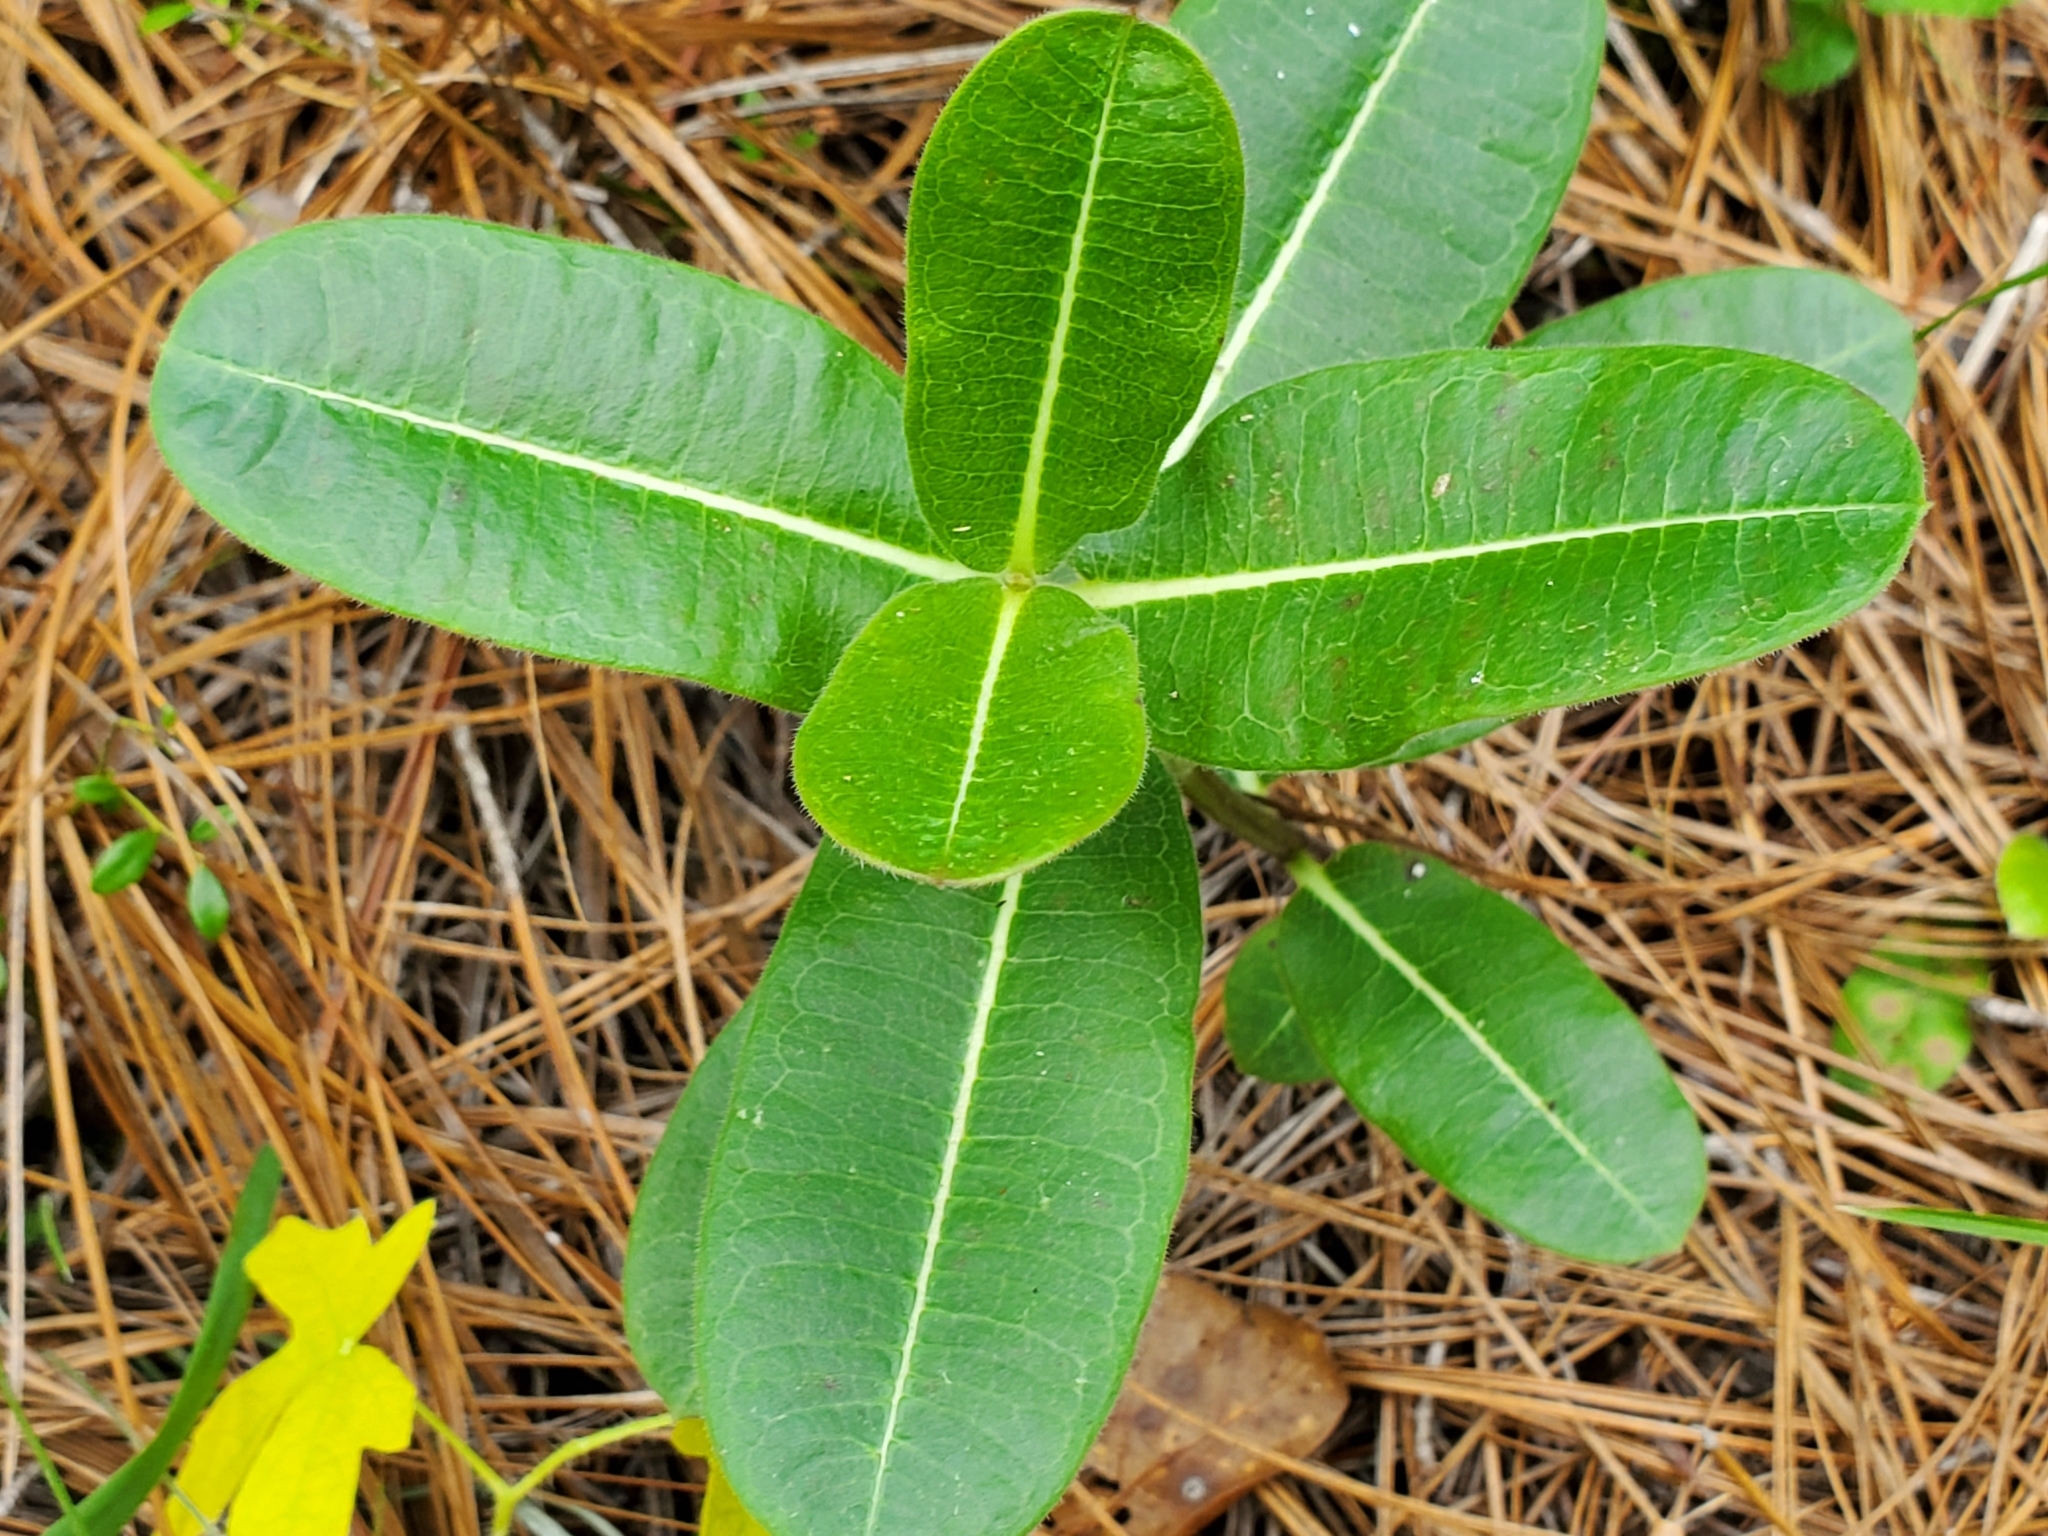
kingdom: Plantae
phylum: Tracheophyta
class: Magnoliopsida
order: Gentianales
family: Apocynaceae
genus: Asclepias
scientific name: Asclepias obovata
